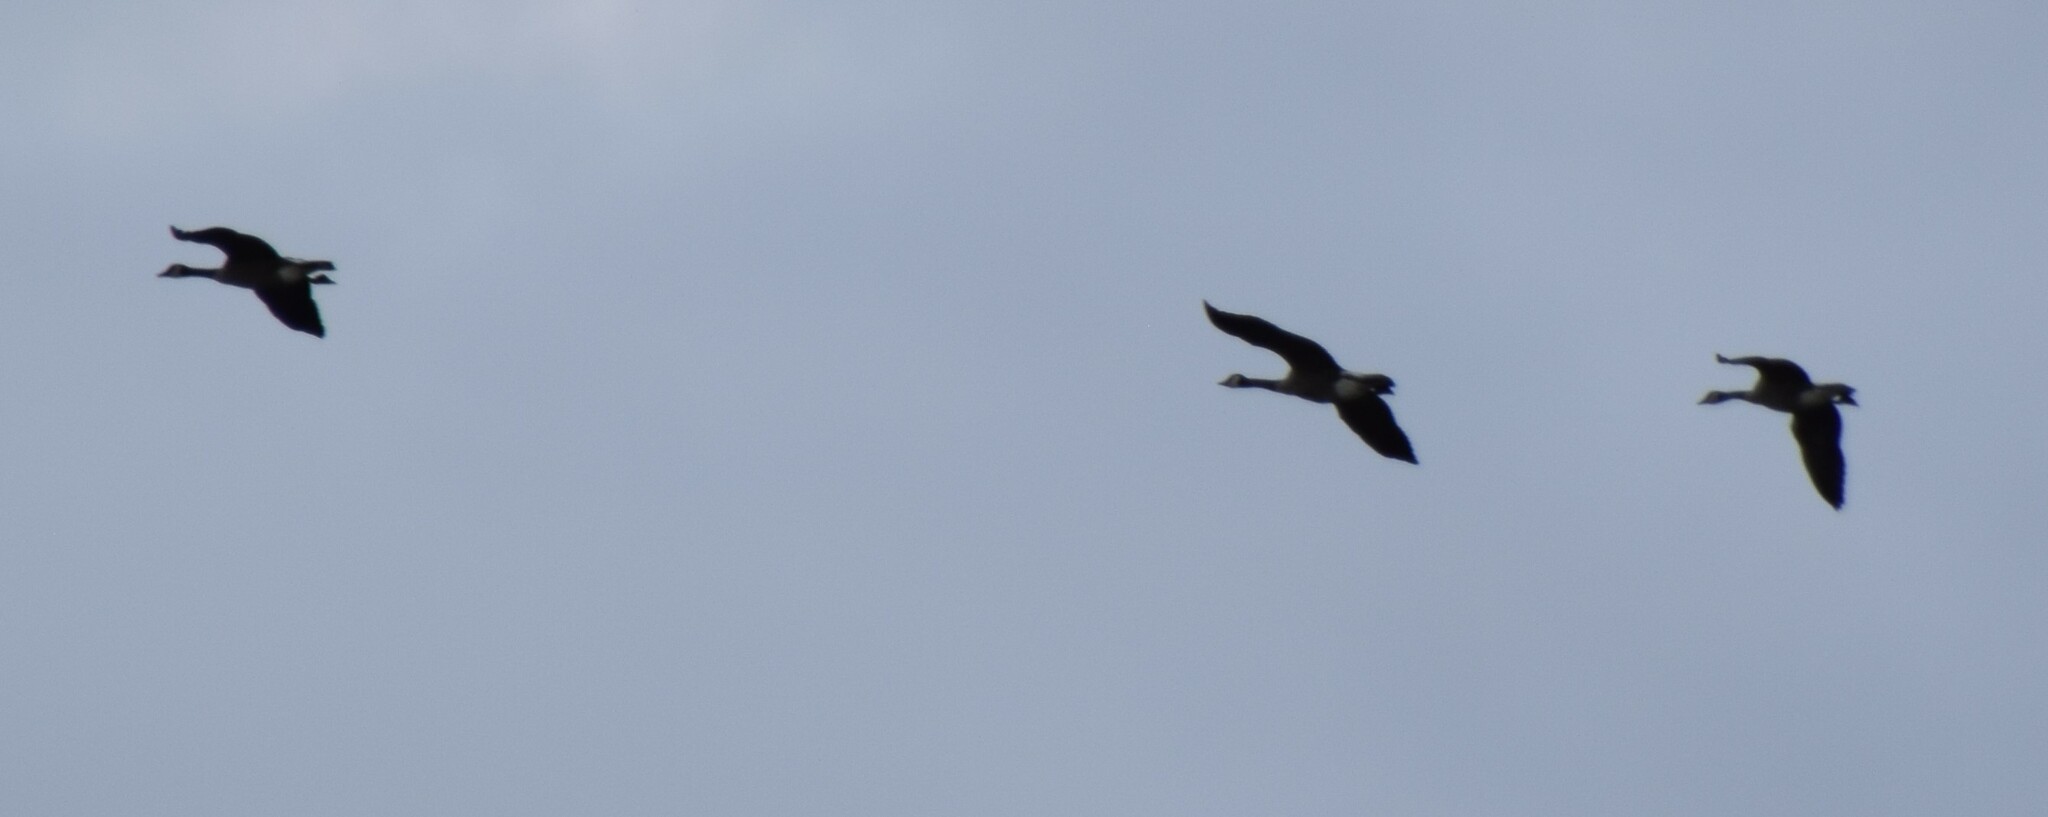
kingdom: Animalia
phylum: Chordata
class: Aves
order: Anseriformes
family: Anatidae
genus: Branta
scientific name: Branta canadensis
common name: Canada goose
